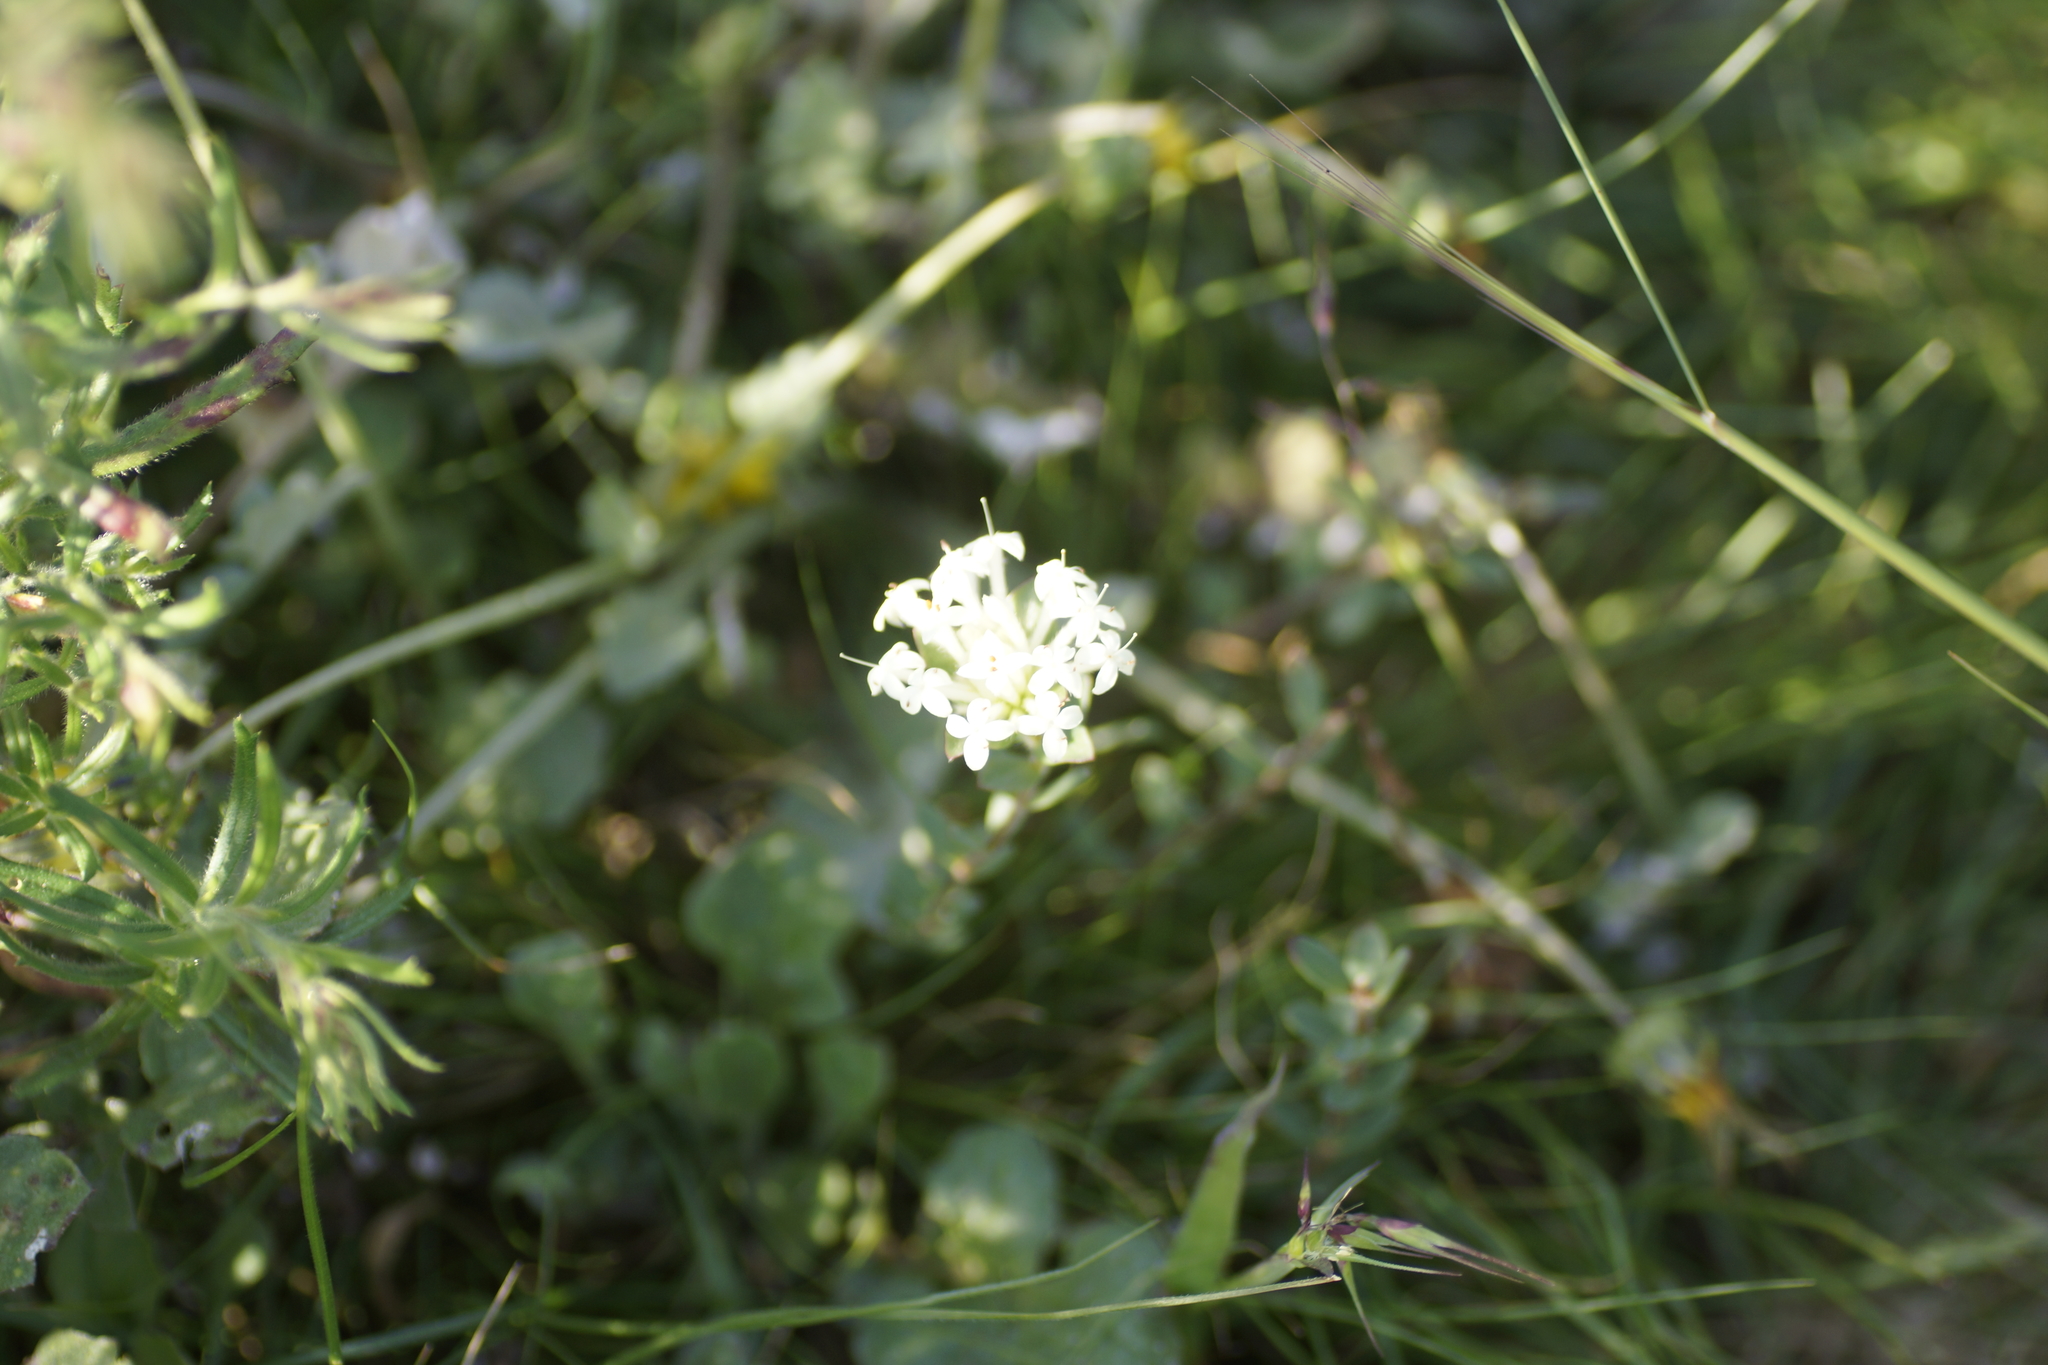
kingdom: Plantae
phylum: Tracheophyta
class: Magnoliopsida
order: Malvales
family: Thymelaeaceae
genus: Pimelea
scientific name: Pimelea humilis
